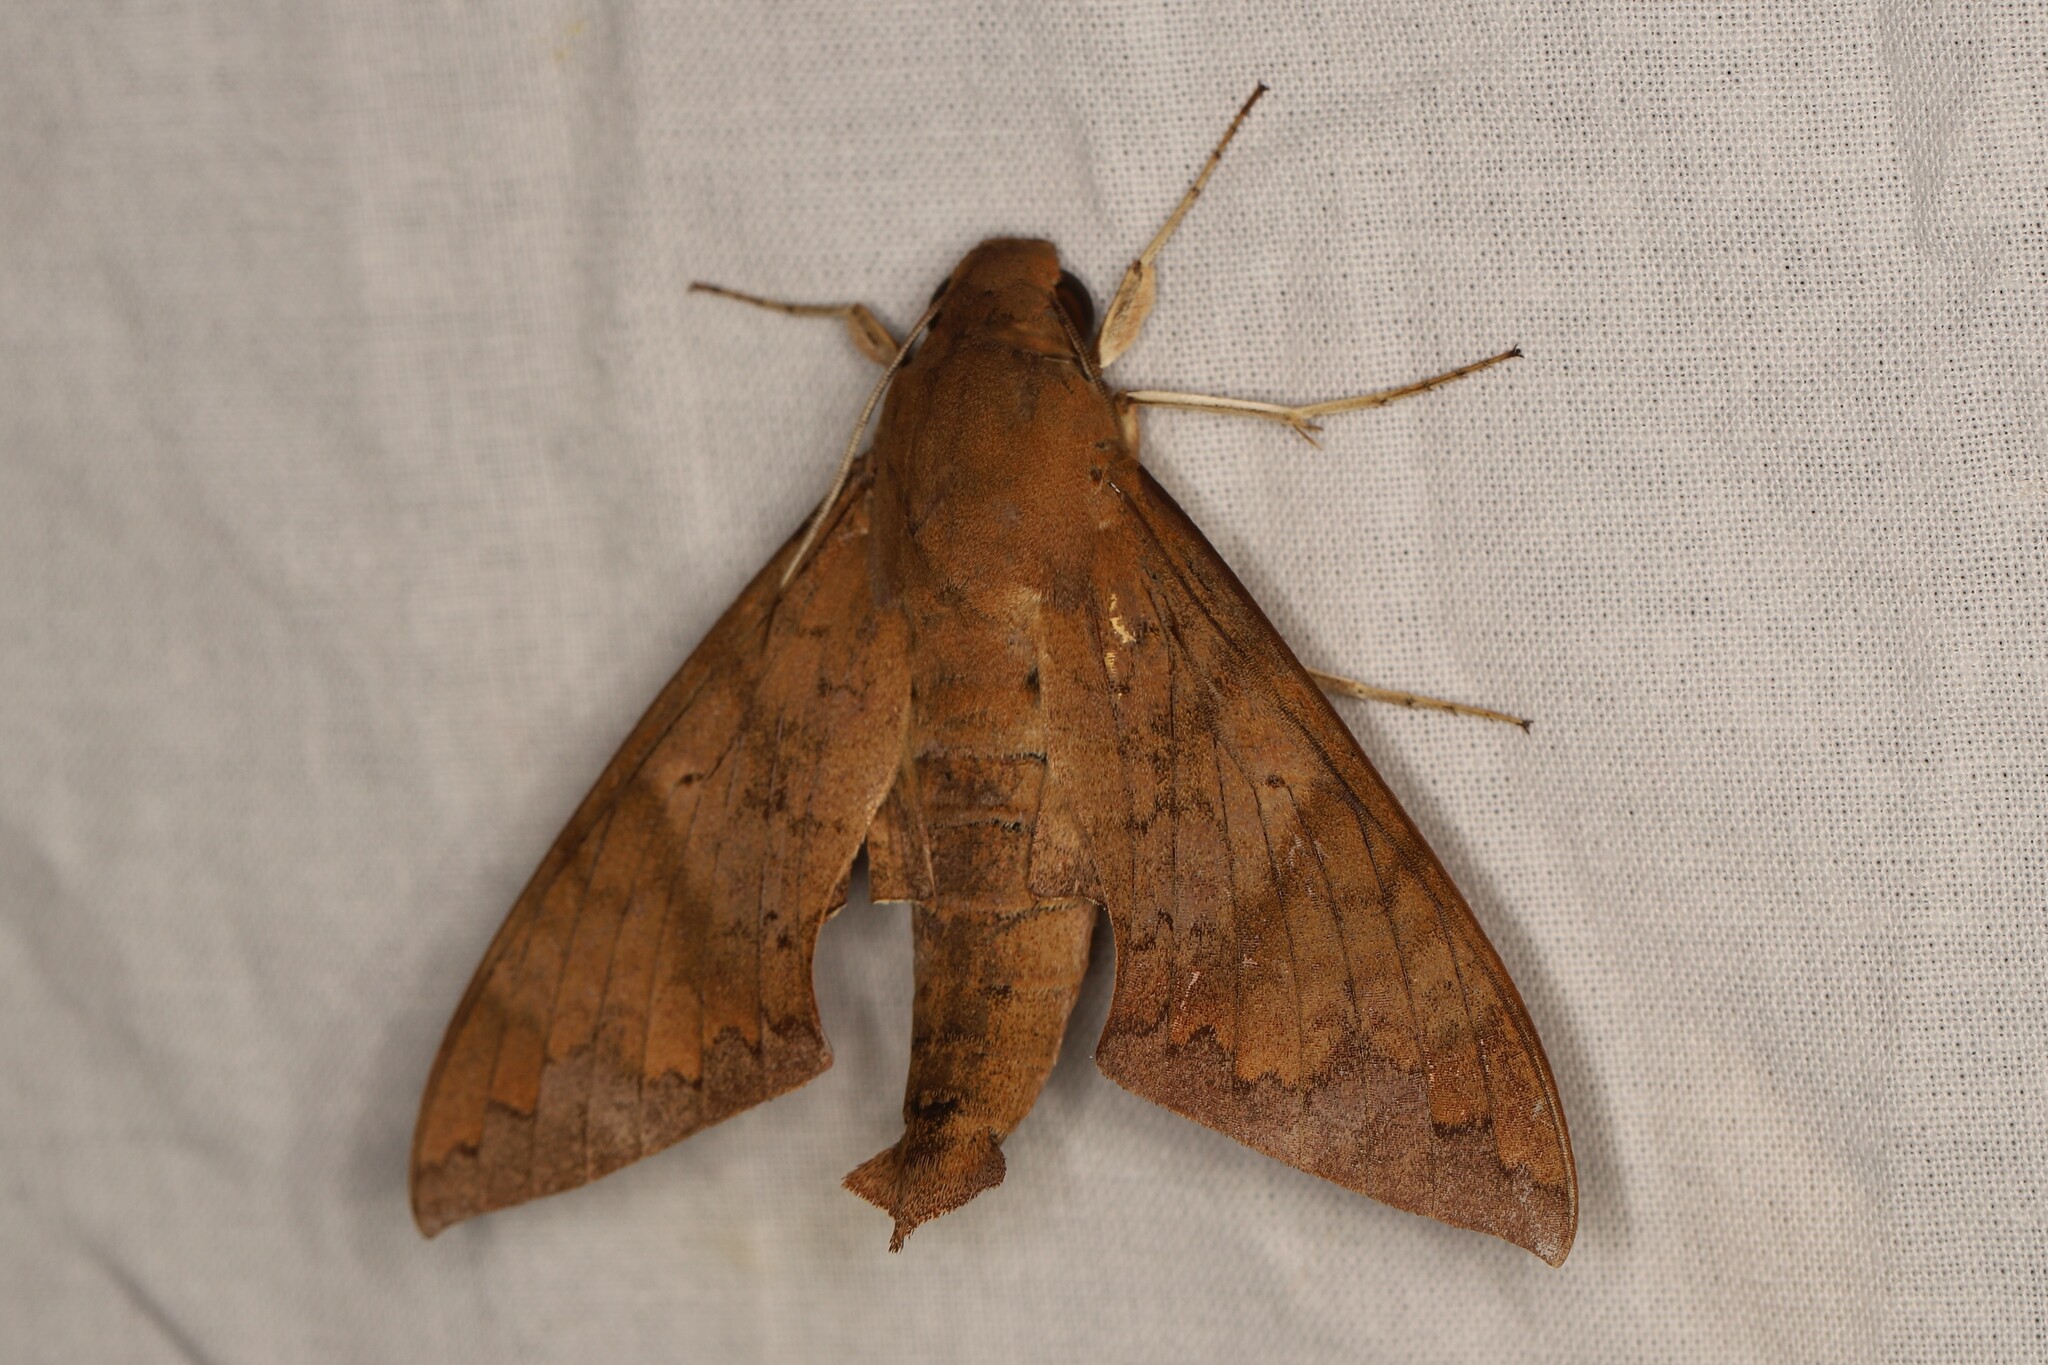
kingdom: Animalia
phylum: Arthropoda
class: Insecta
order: Lepidoptera
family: Sphingidae
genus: Pachylioides
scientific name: Pachylioides resumens
